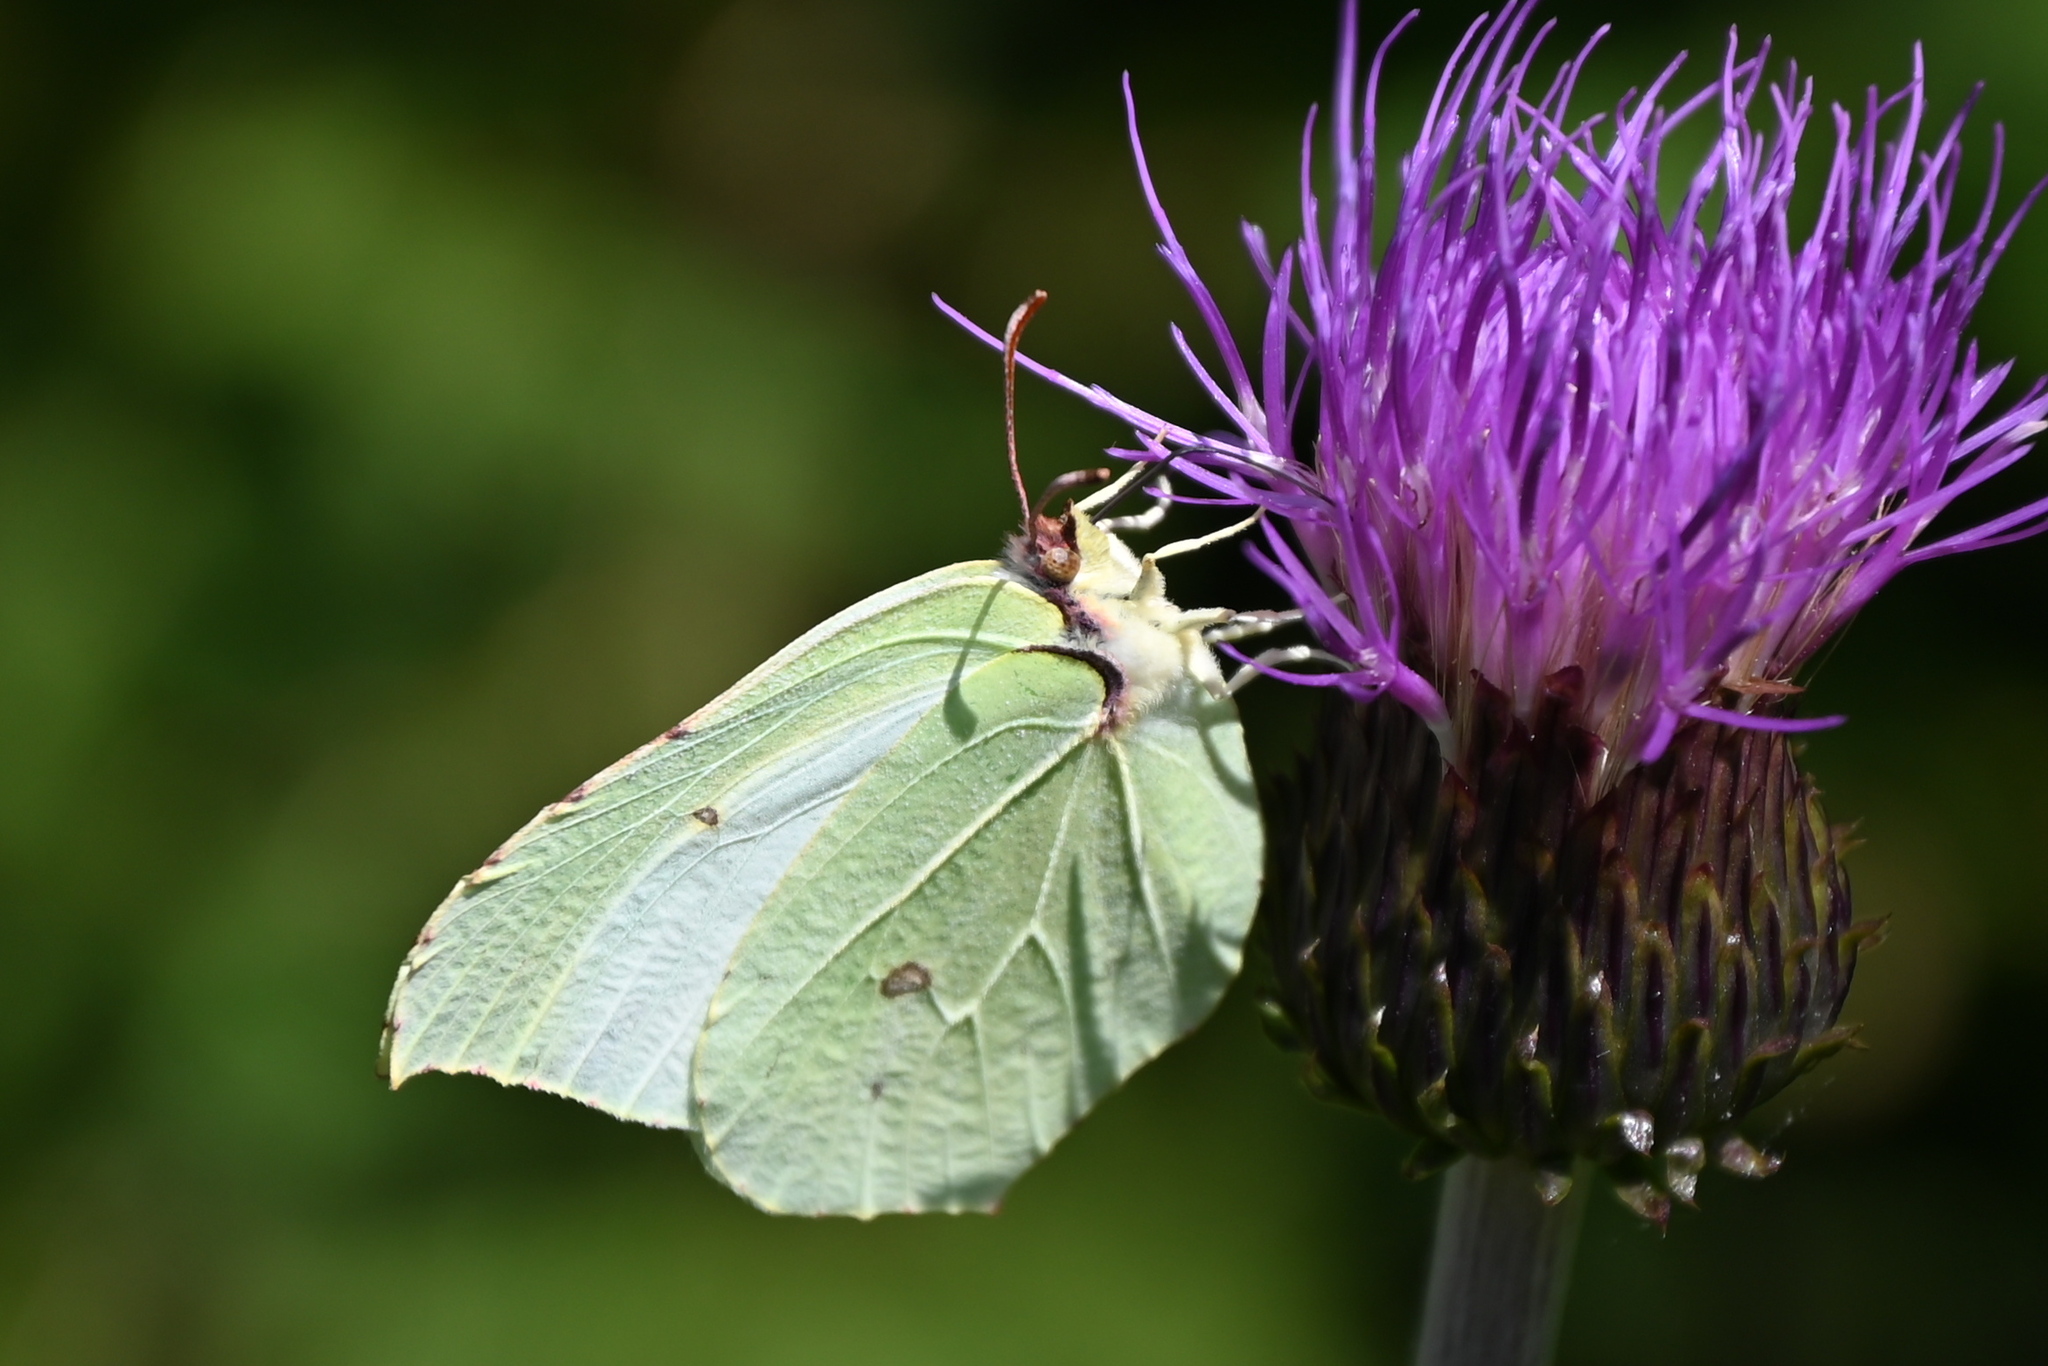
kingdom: Animalia
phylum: Arthropoda
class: Insecta
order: Lepidoptera
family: Pieridae
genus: Gonepteryx
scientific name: Gonepteryx rhamni
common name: Brimstone
